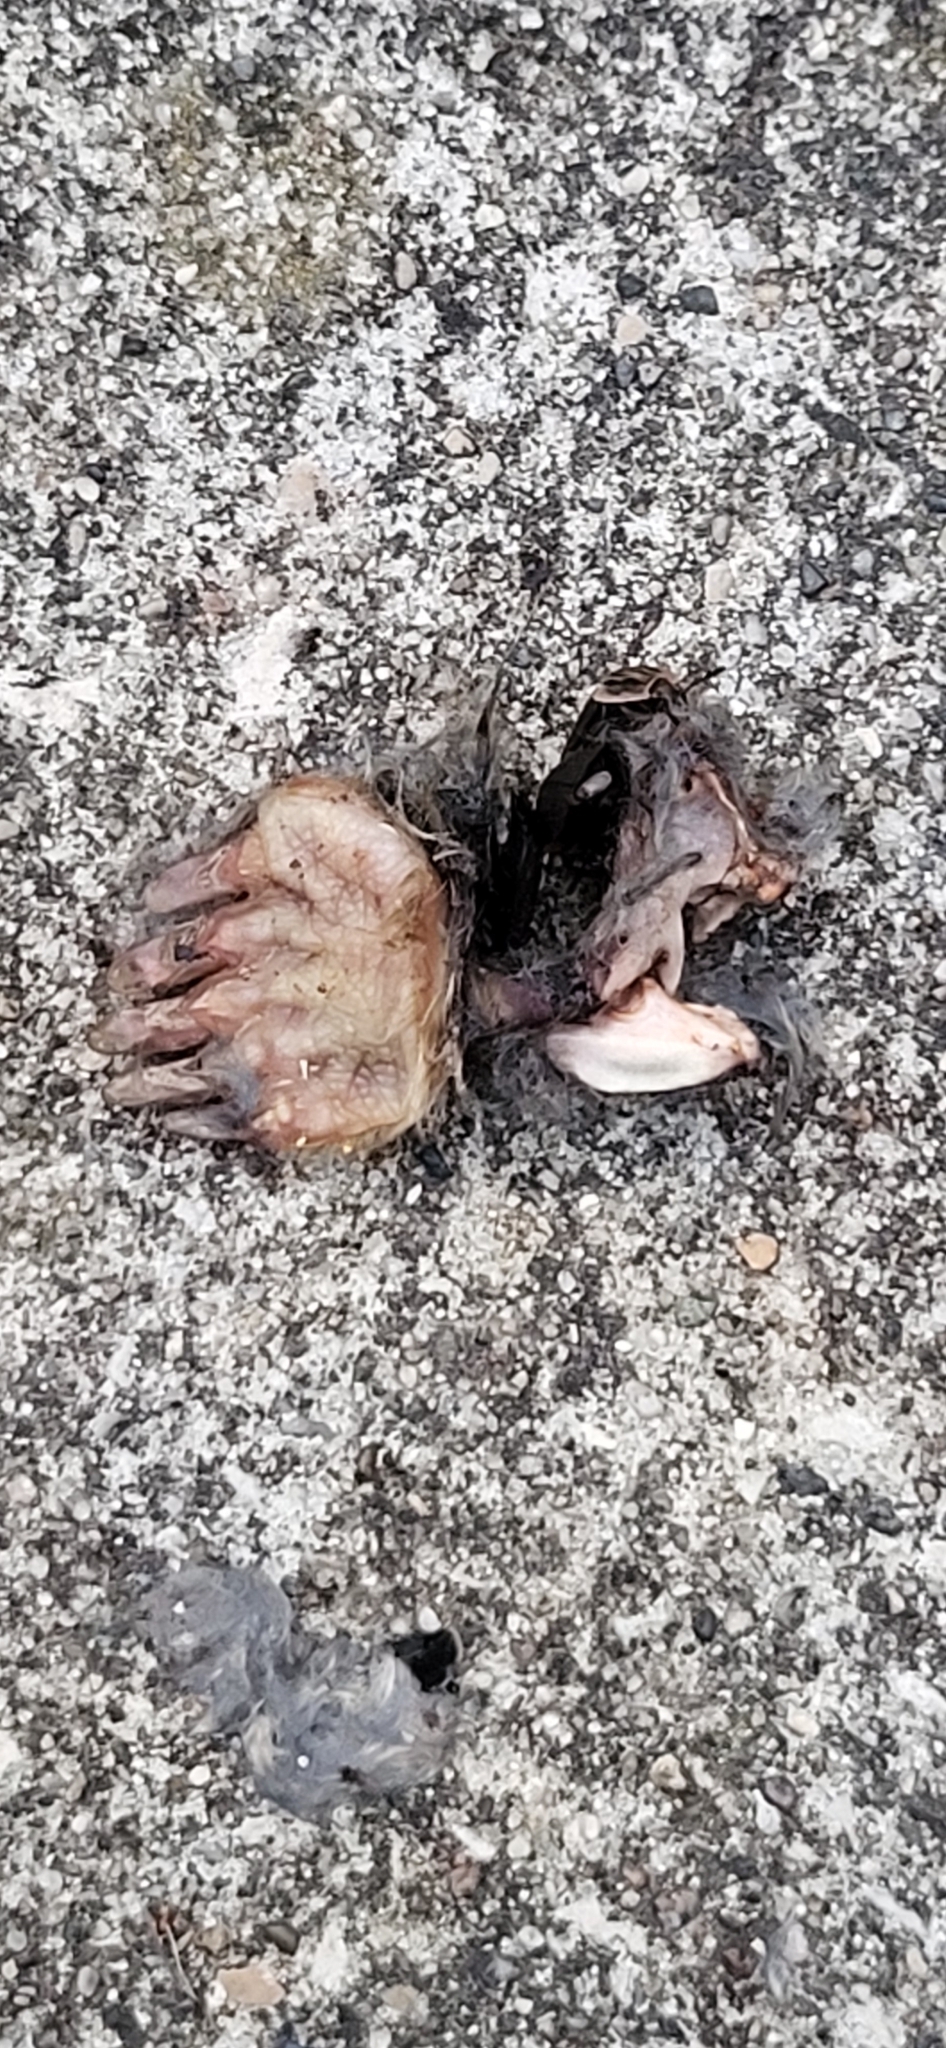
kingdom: Animalia
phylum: Chordata
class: Mammalia
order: Soricomorpha
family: Talpidae
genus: Scalopus
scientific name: Scalopus aquaticus
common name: Eastern mole
